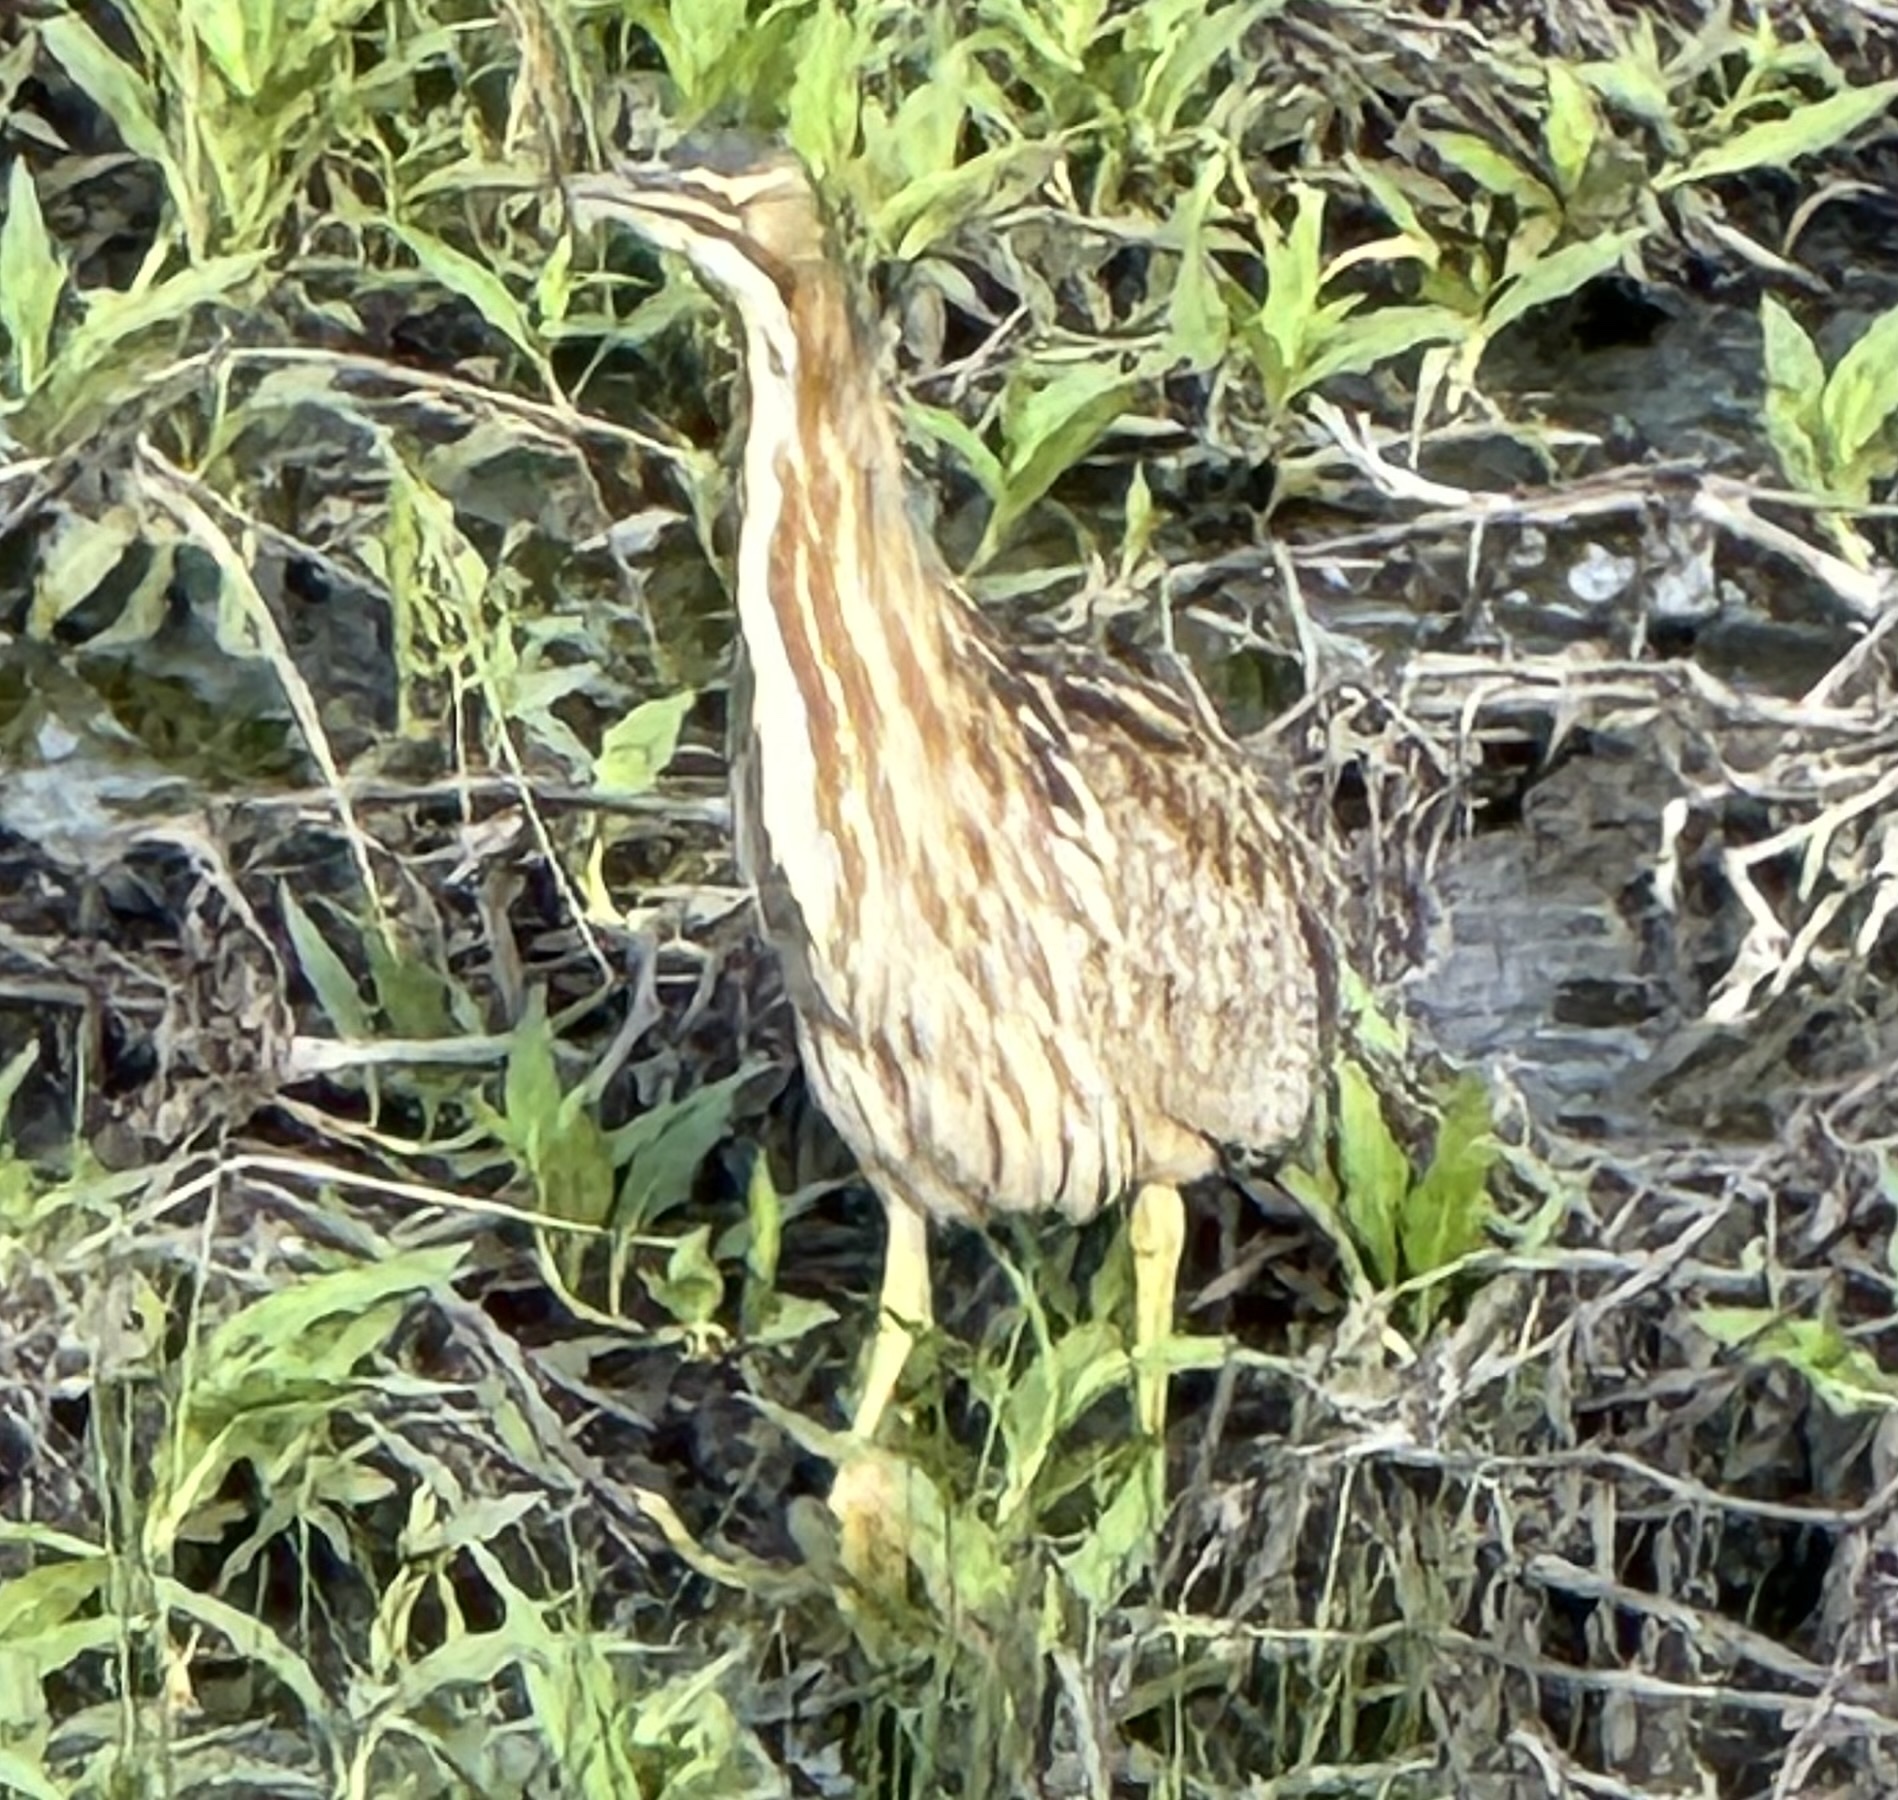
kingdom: Animalia
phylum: Chordata
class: Aves
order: Pelecaniformes
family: Ardeidae
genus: Botaurus
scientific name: Botaurus lentiginosus
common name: American bittern
